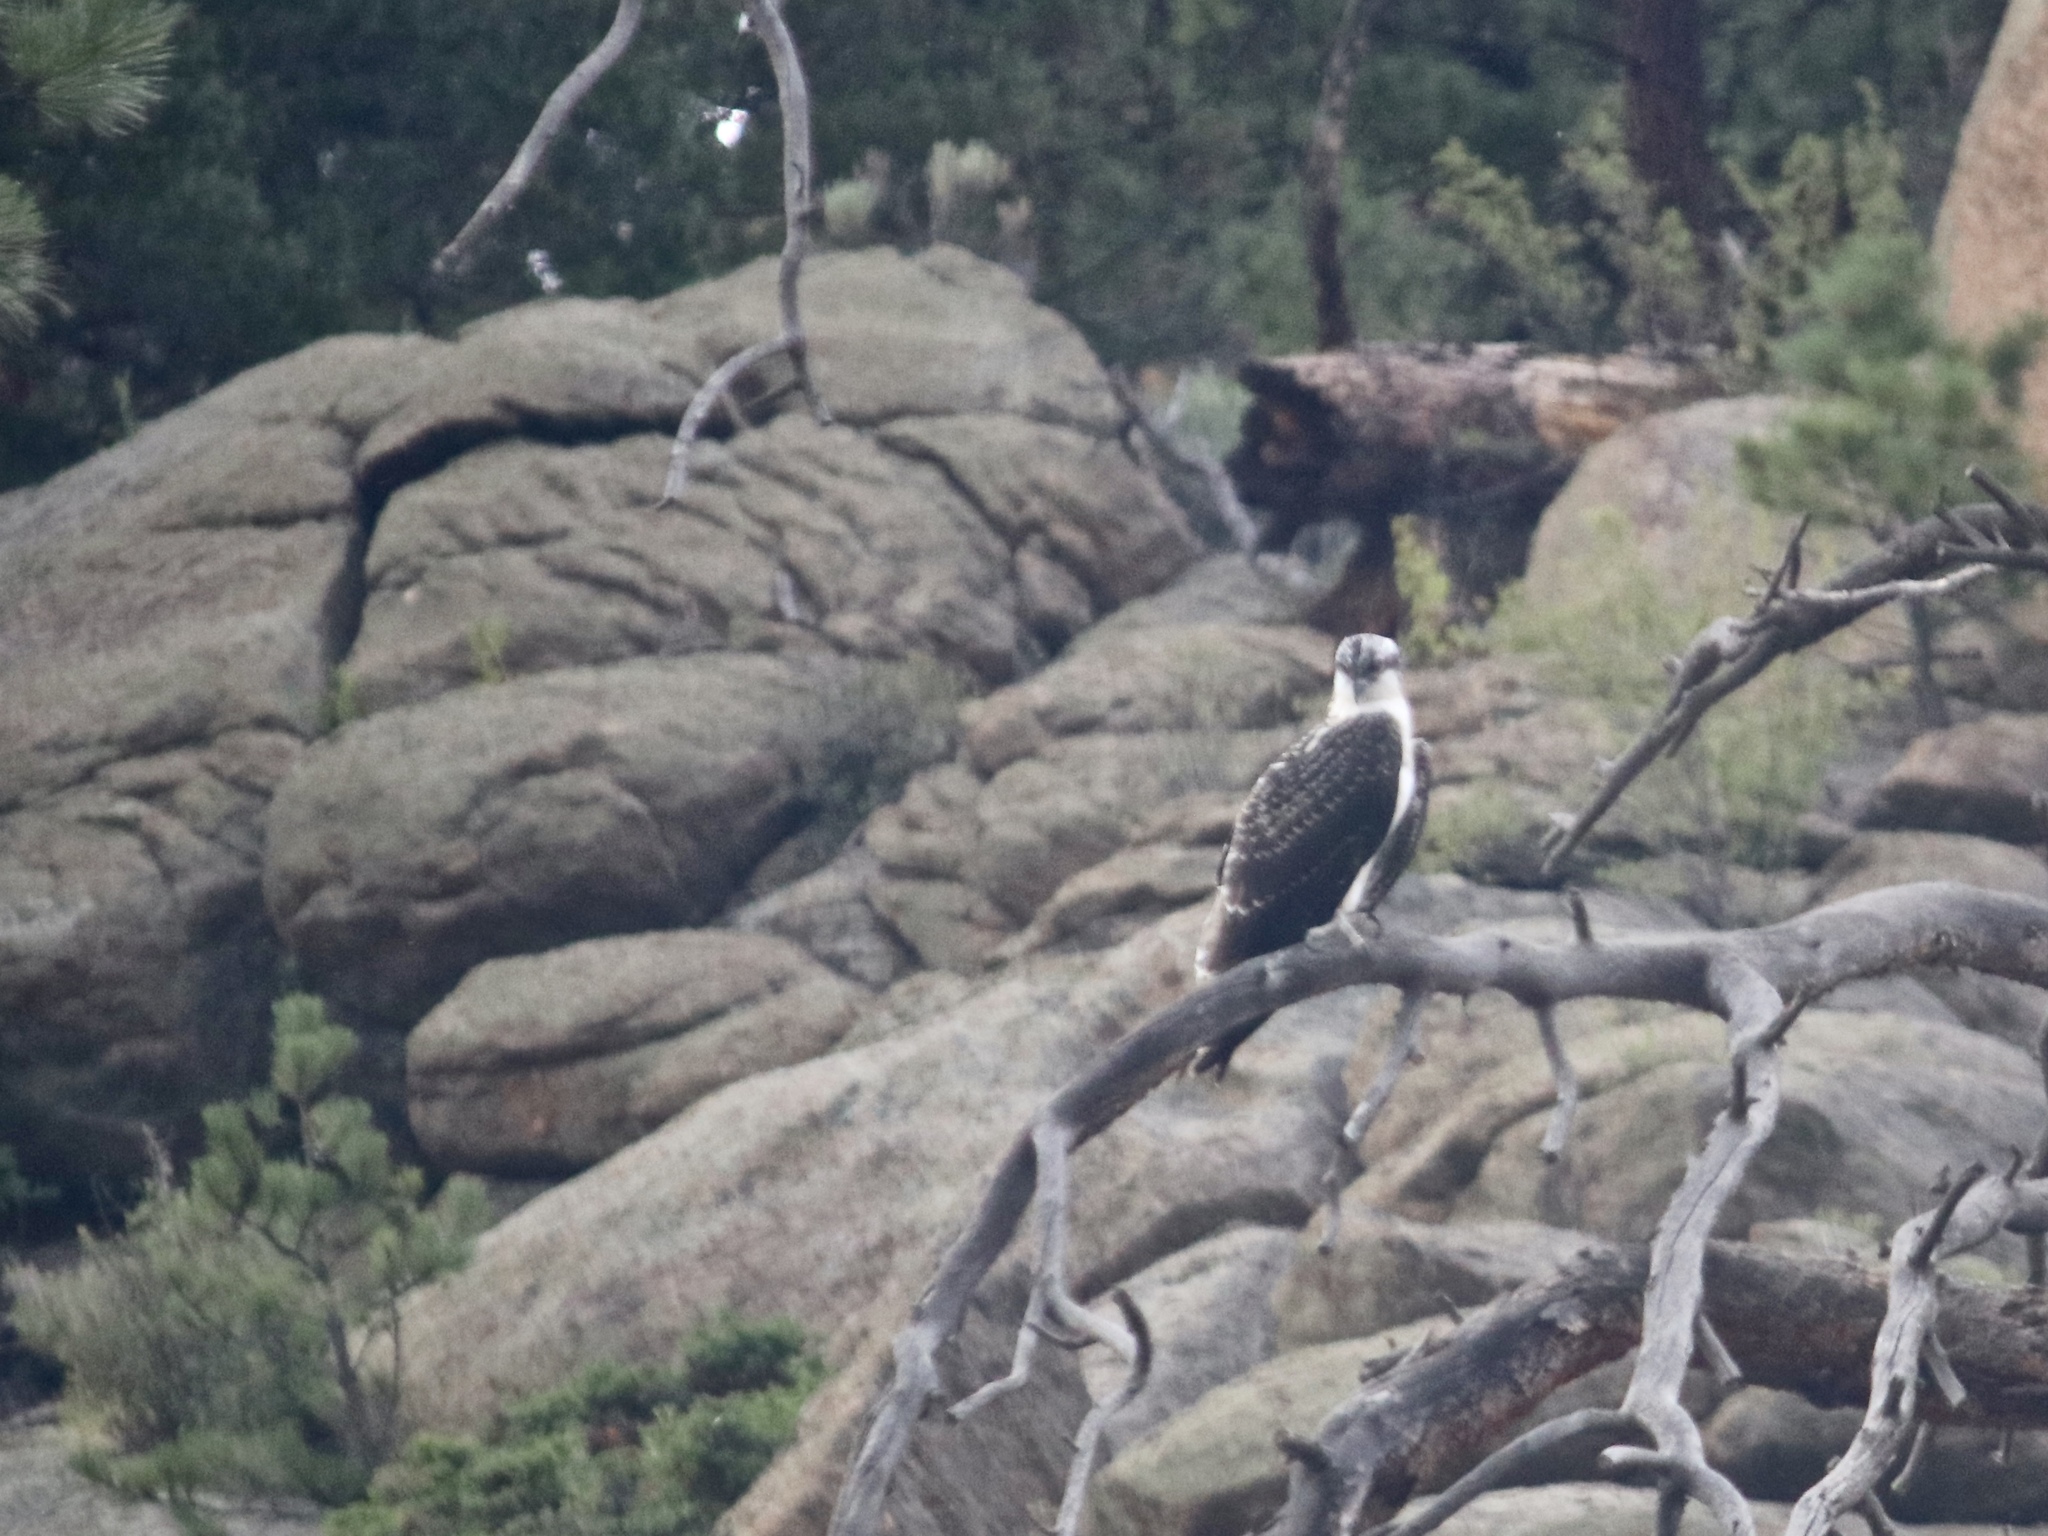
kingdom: Animalia
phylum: Chordata
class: Aves
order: Accipitriformes
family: Pandionidae
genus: Pandion
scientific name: Pandion haliaetus
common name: Osprey
